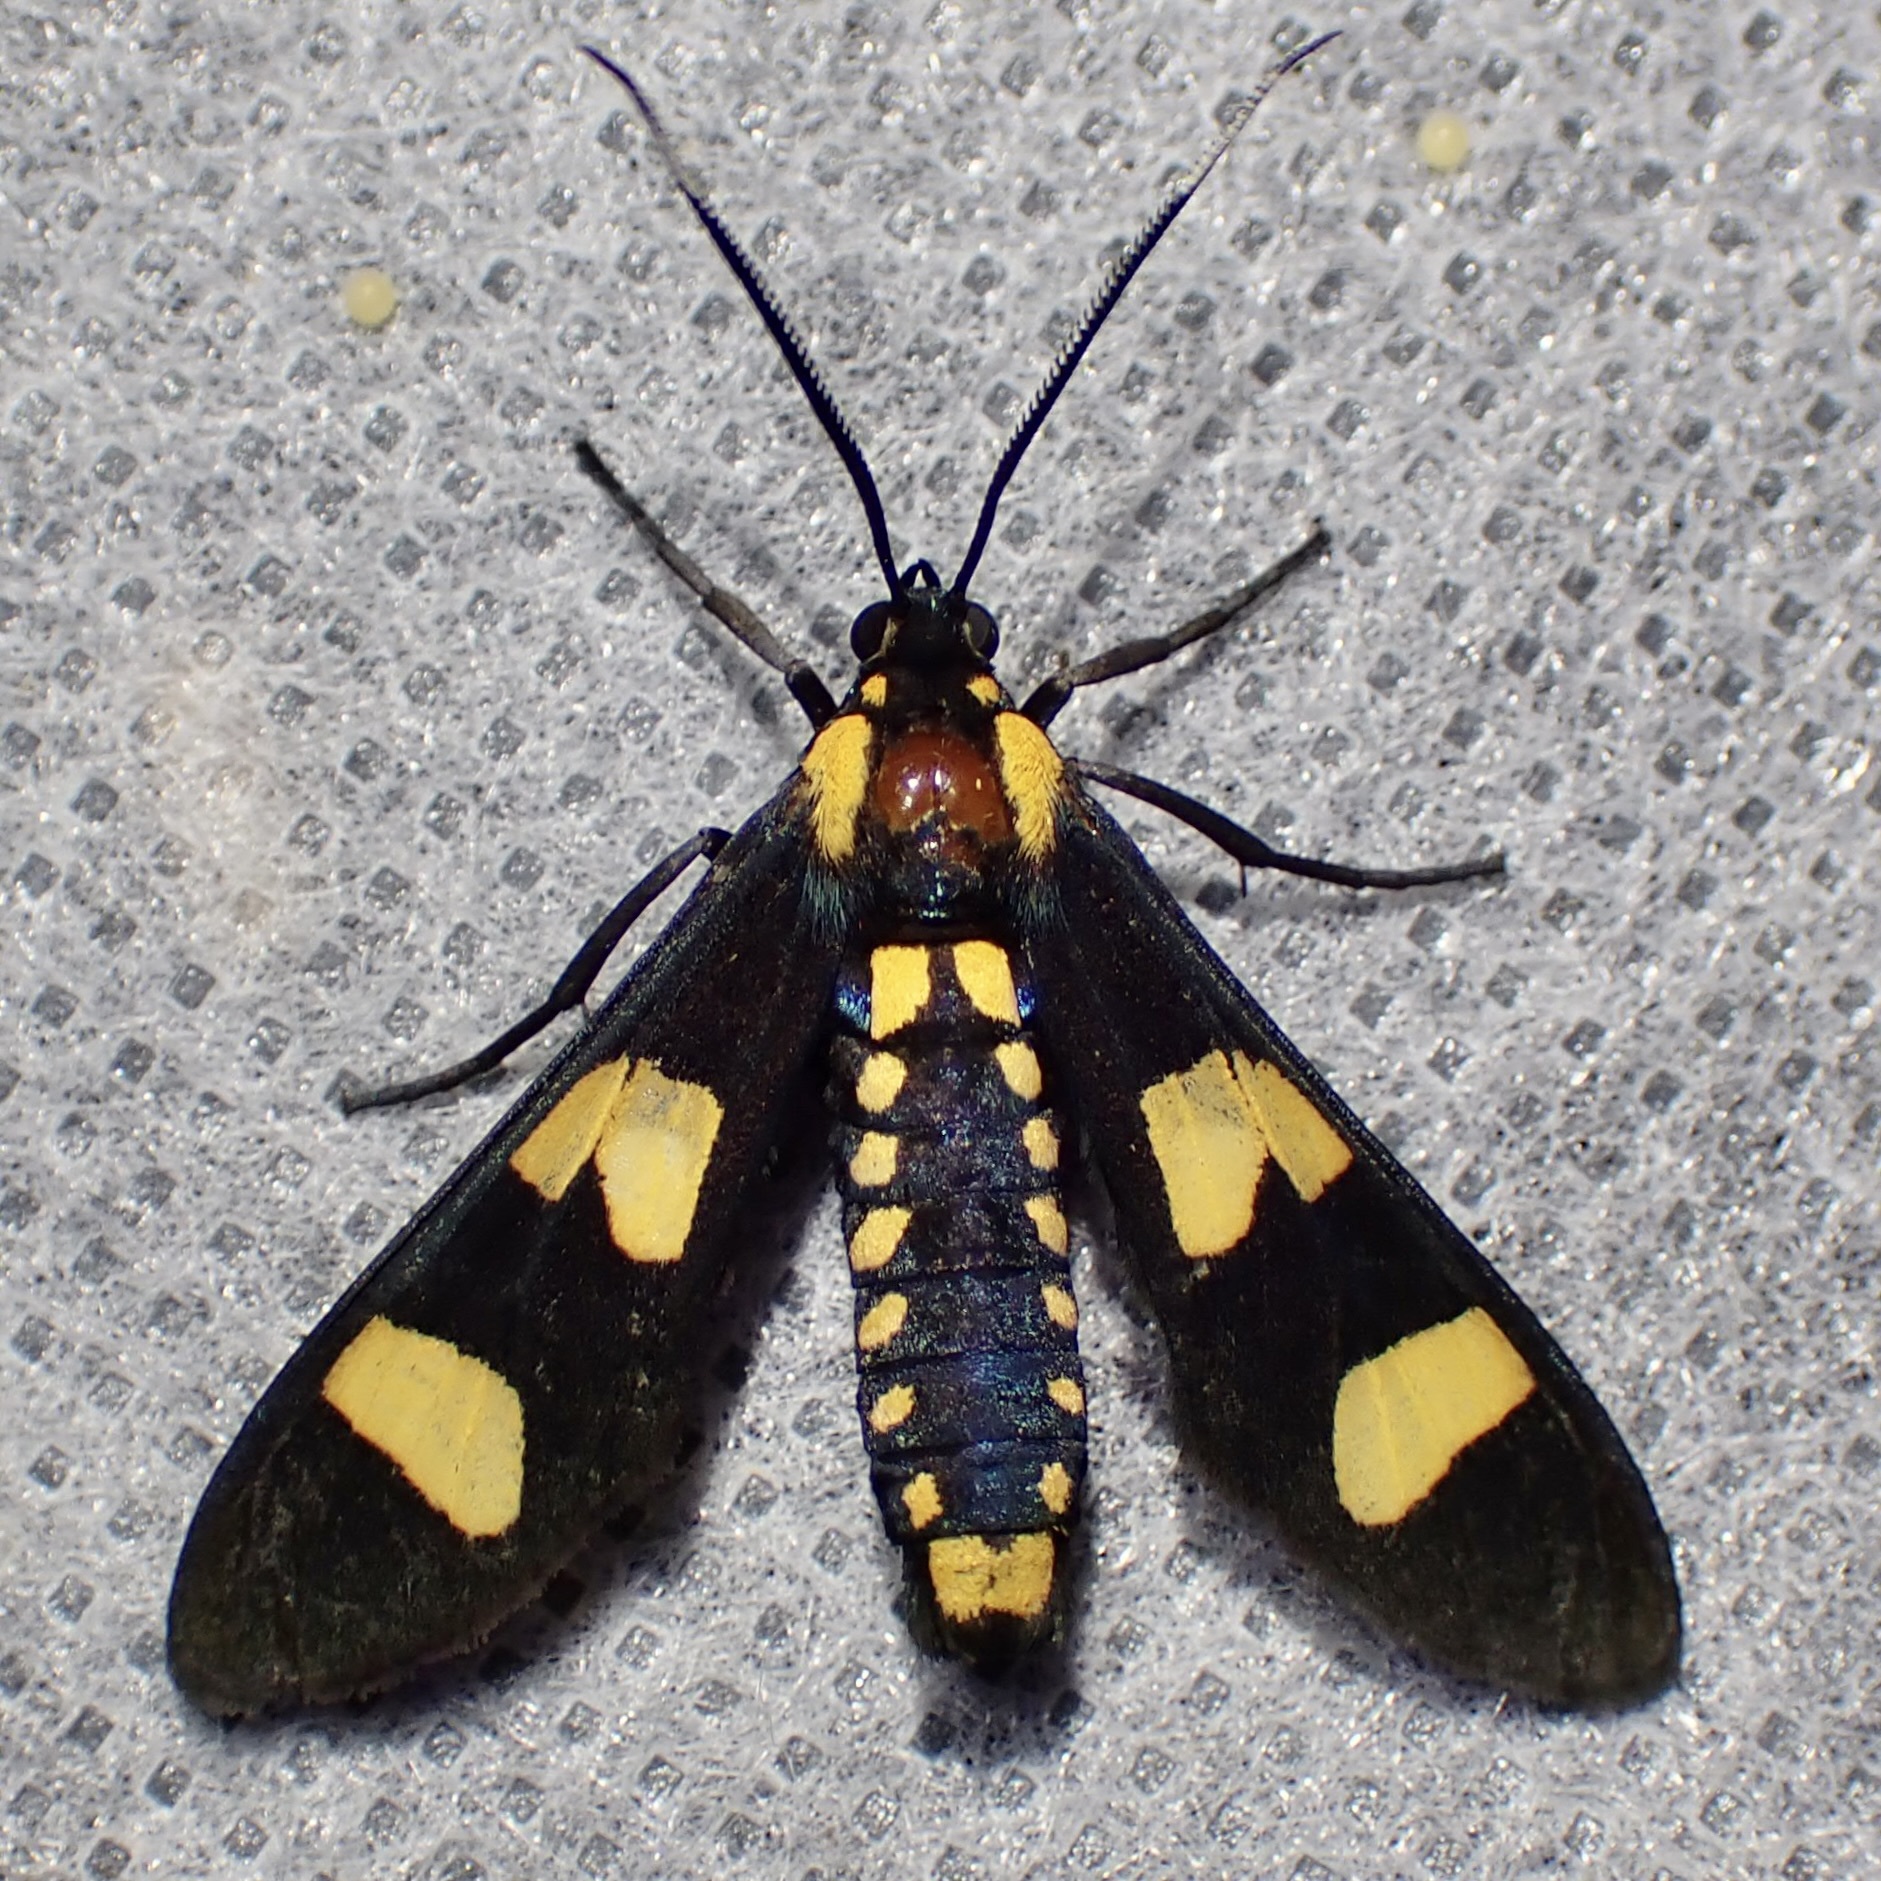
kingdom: Animalia
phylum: Arthropoda
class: Insecta
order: Lepidoptera
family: Erebidae
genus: Phoenicoprocta
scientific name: Phoenicoprocta hampsonii
